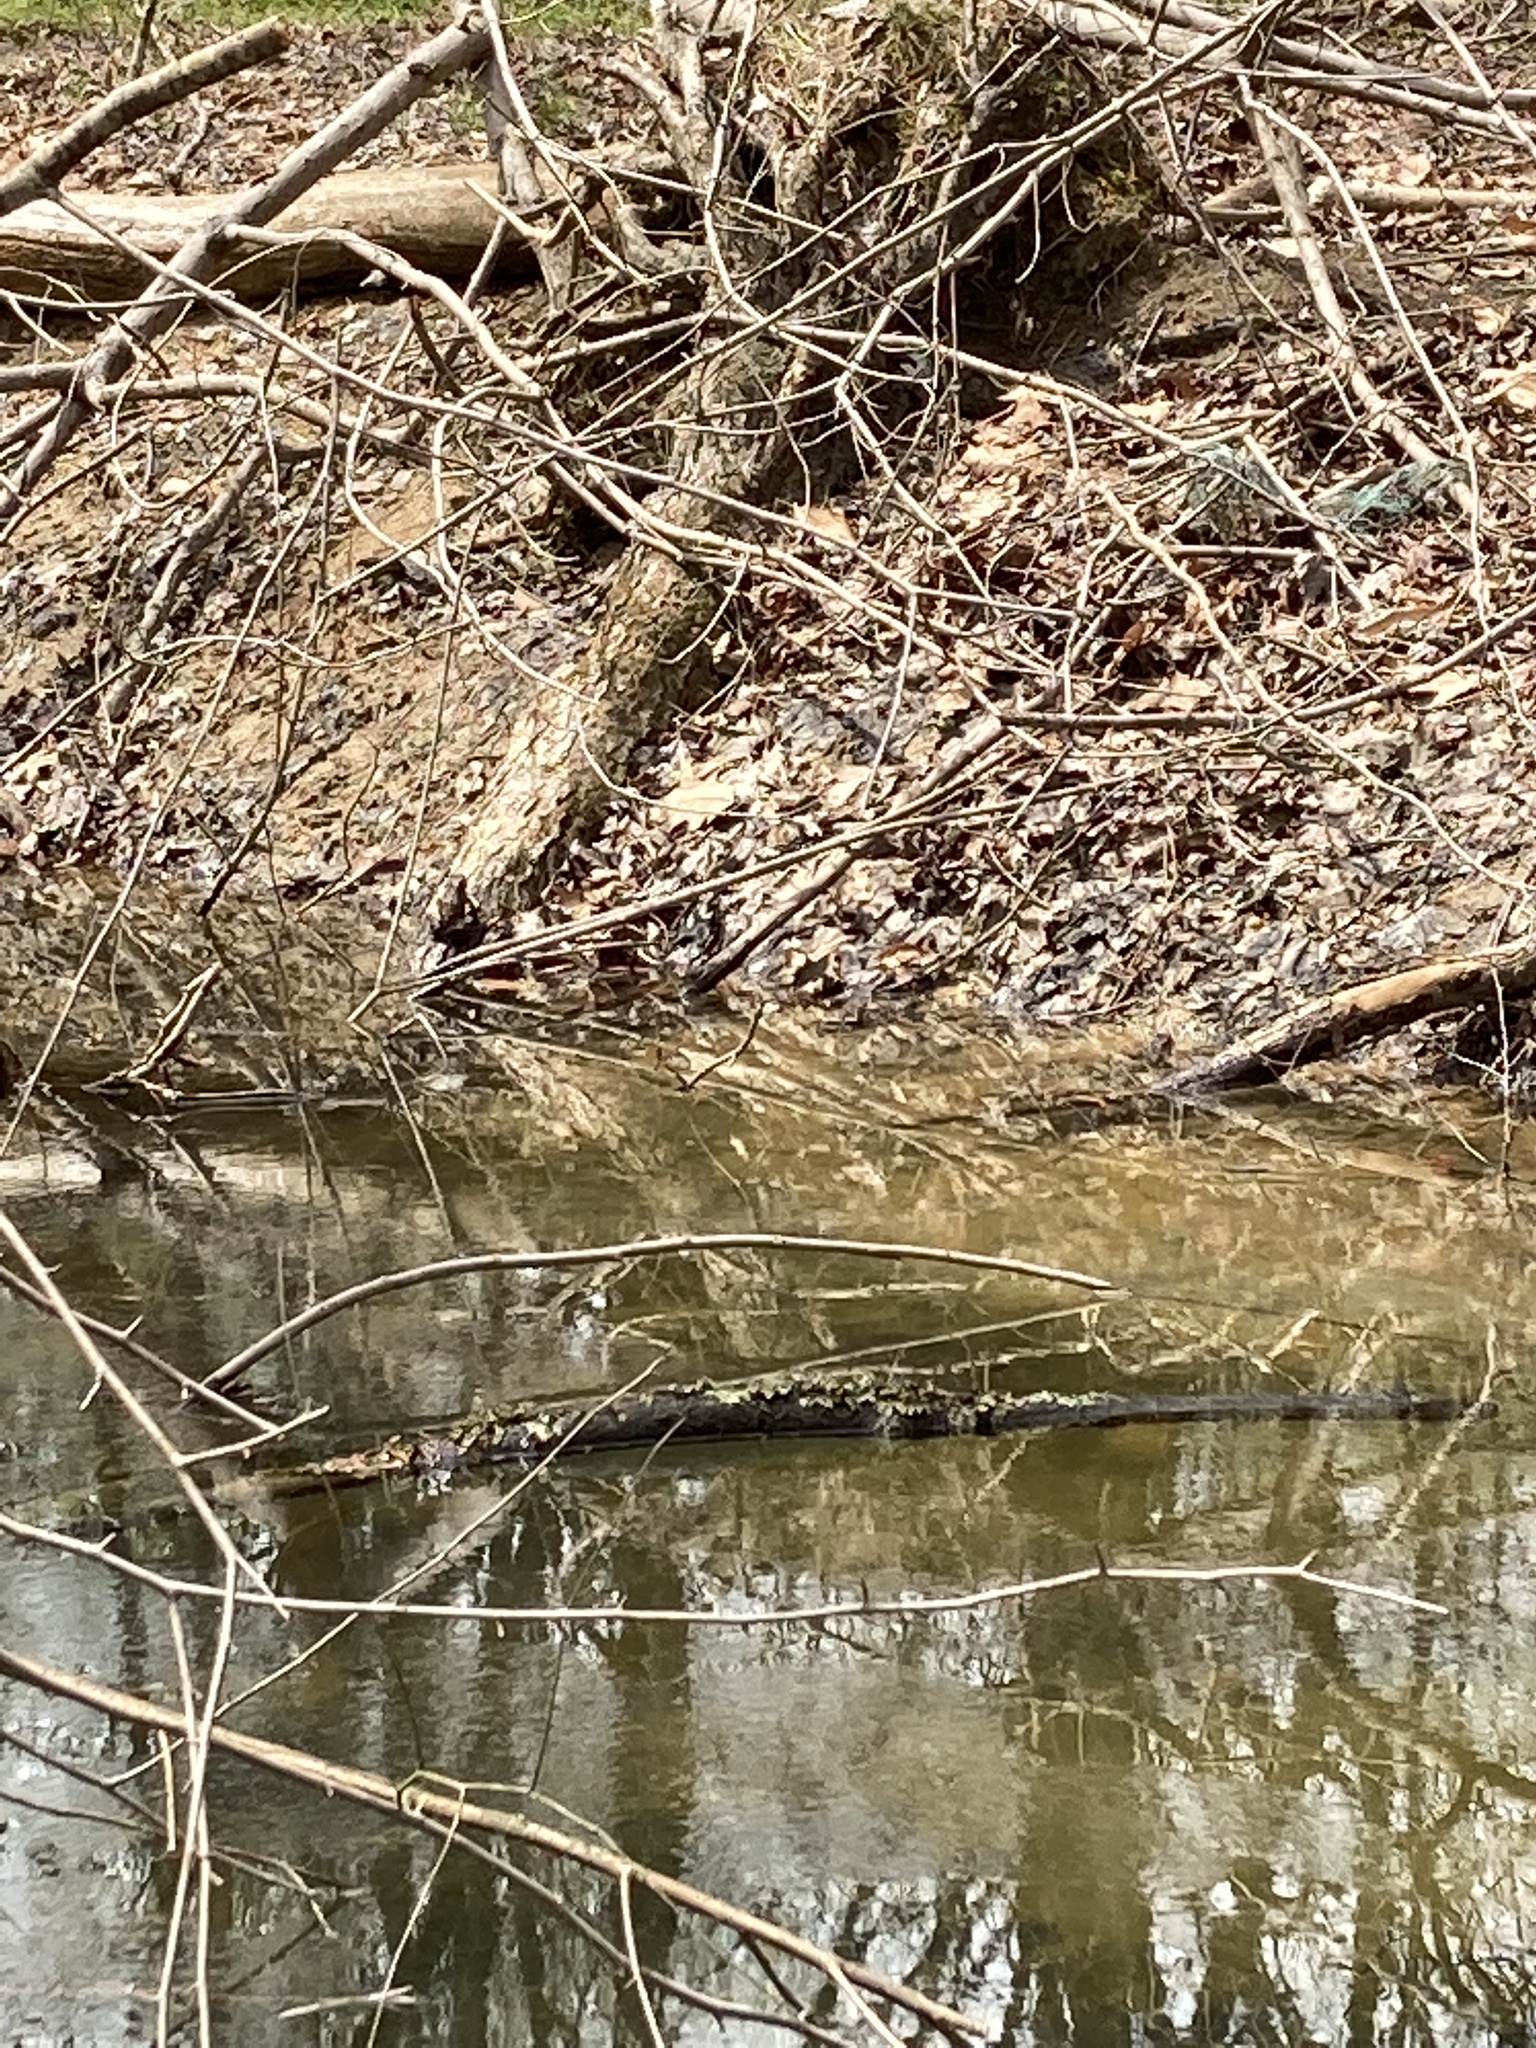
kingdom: Animalia
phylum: Chordata
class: Amphibia
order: Anura
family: Bufonidae
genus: Anaxyrus
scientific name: Anaxyrus americanus
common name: American toad
